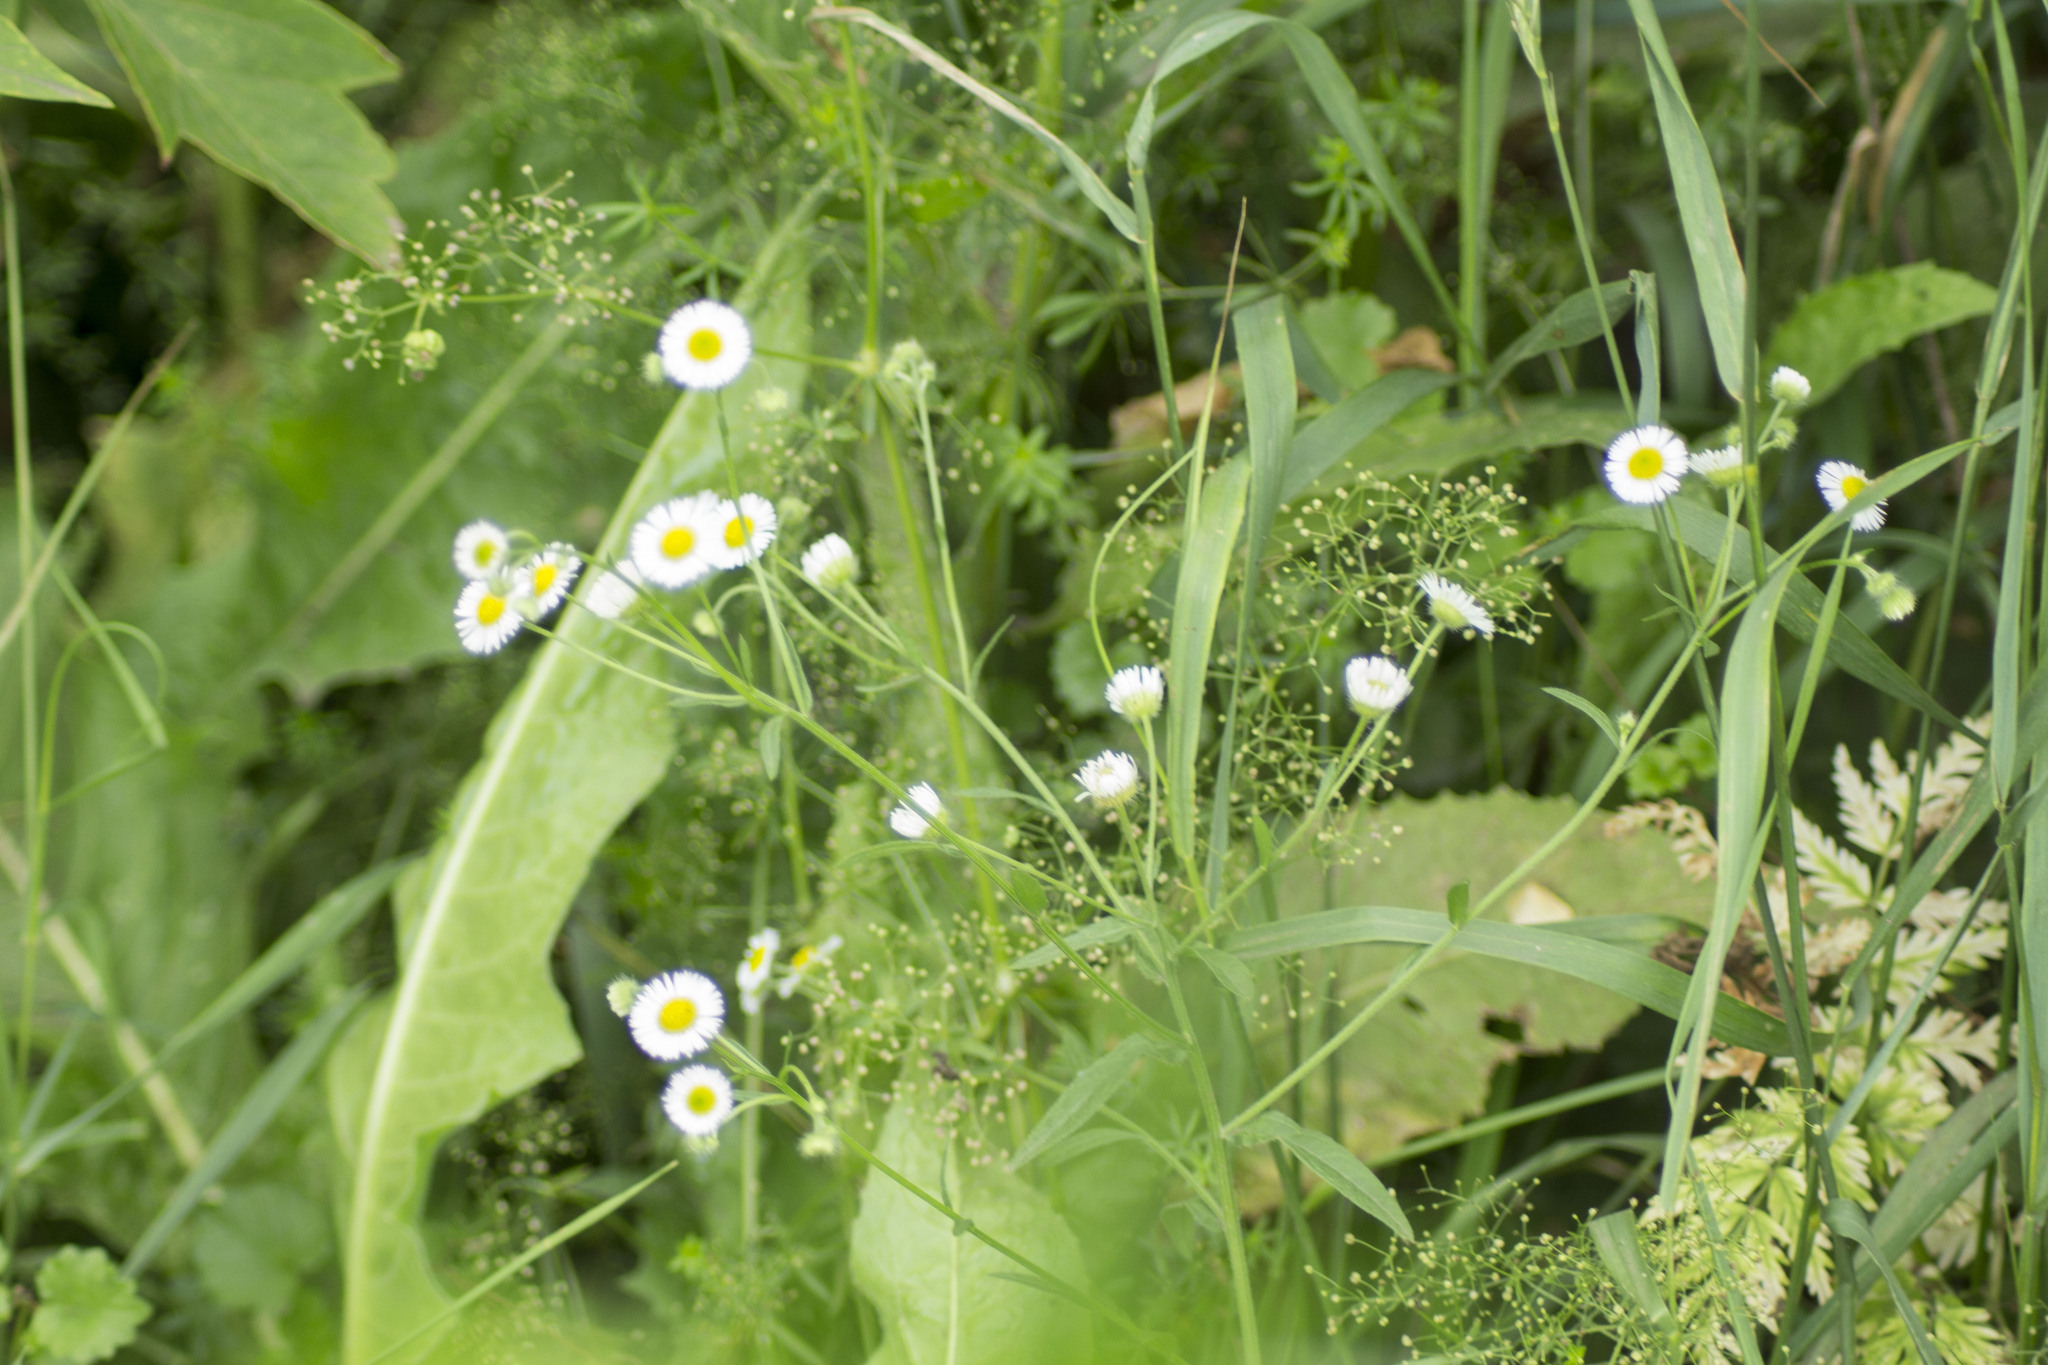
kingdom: Plantae
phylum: Tracheophyta
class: Magnoliopsida
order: Asterales
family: Asteraceae
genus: Erigeron
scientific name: Erigeron annuus
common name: Tall fleabane
